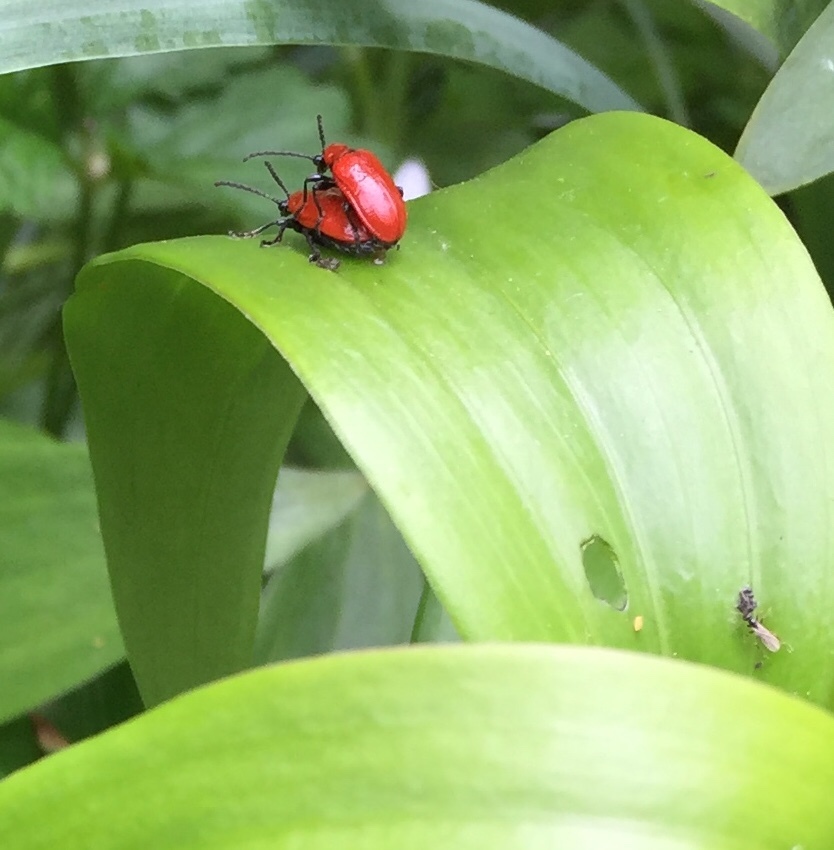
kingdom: Animalia
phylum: Arthropoda
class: Insecta
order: Coleoptera
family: Chrysomelidae
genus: Lilioceris
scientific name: Lilioceris lilii
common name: Lily beetle
